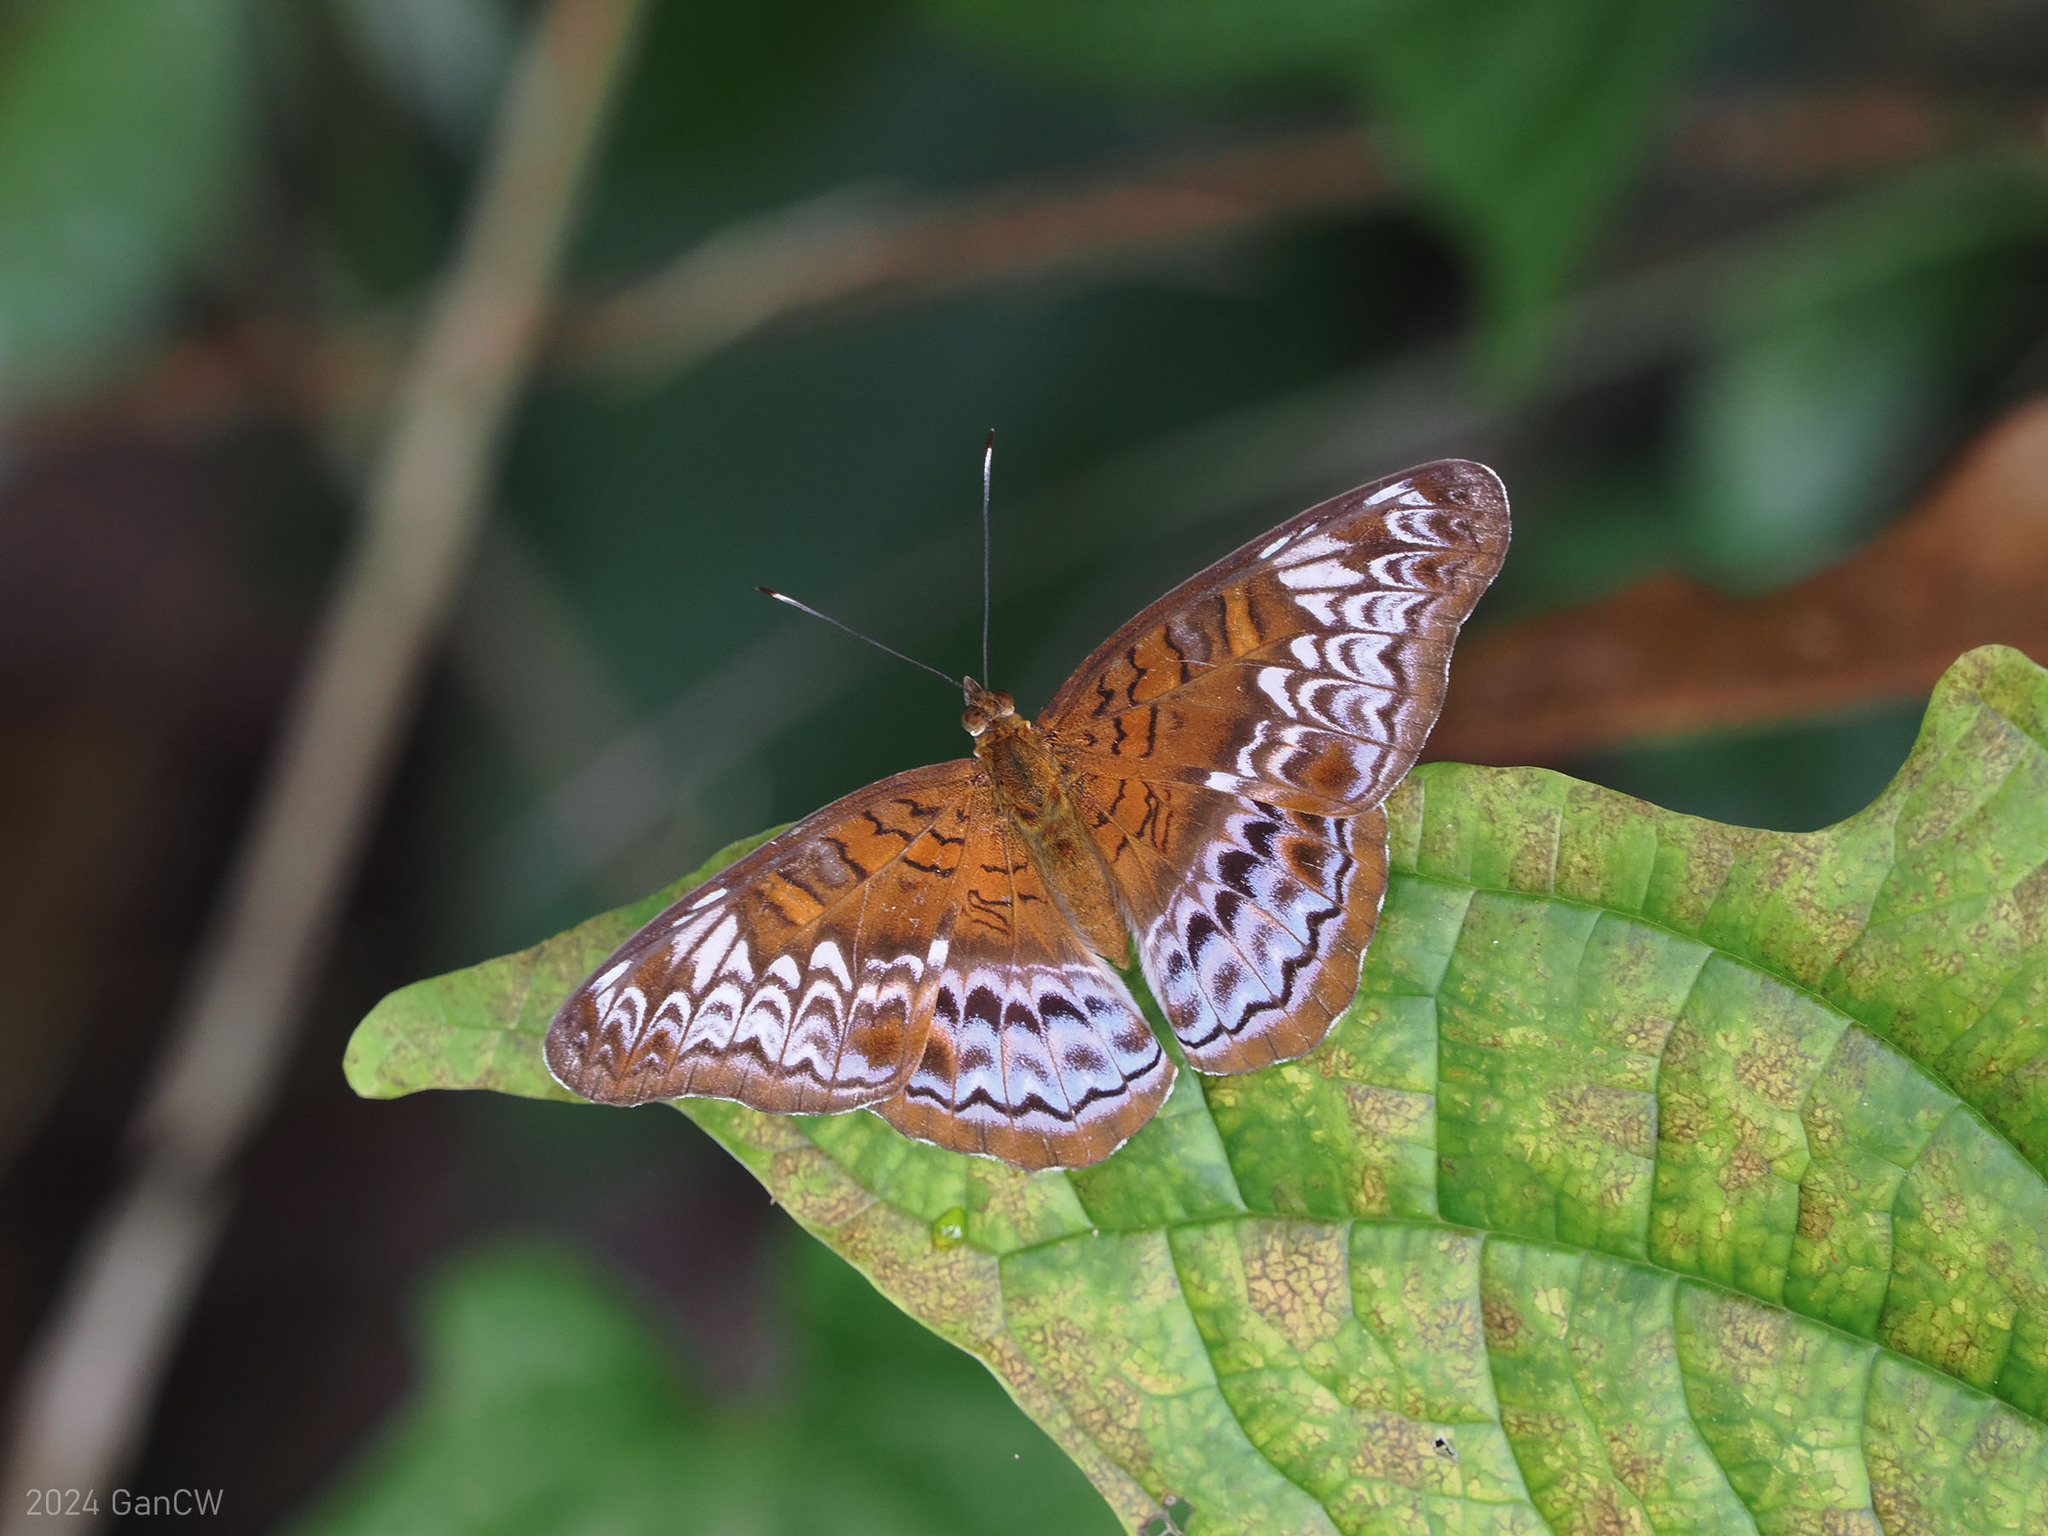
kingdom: Animalia
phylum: Arthropoda
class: Insecta
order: Lepidoptera
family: Nymphalidae
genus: Lebadea
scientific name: Lebadea martha
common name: Knight
